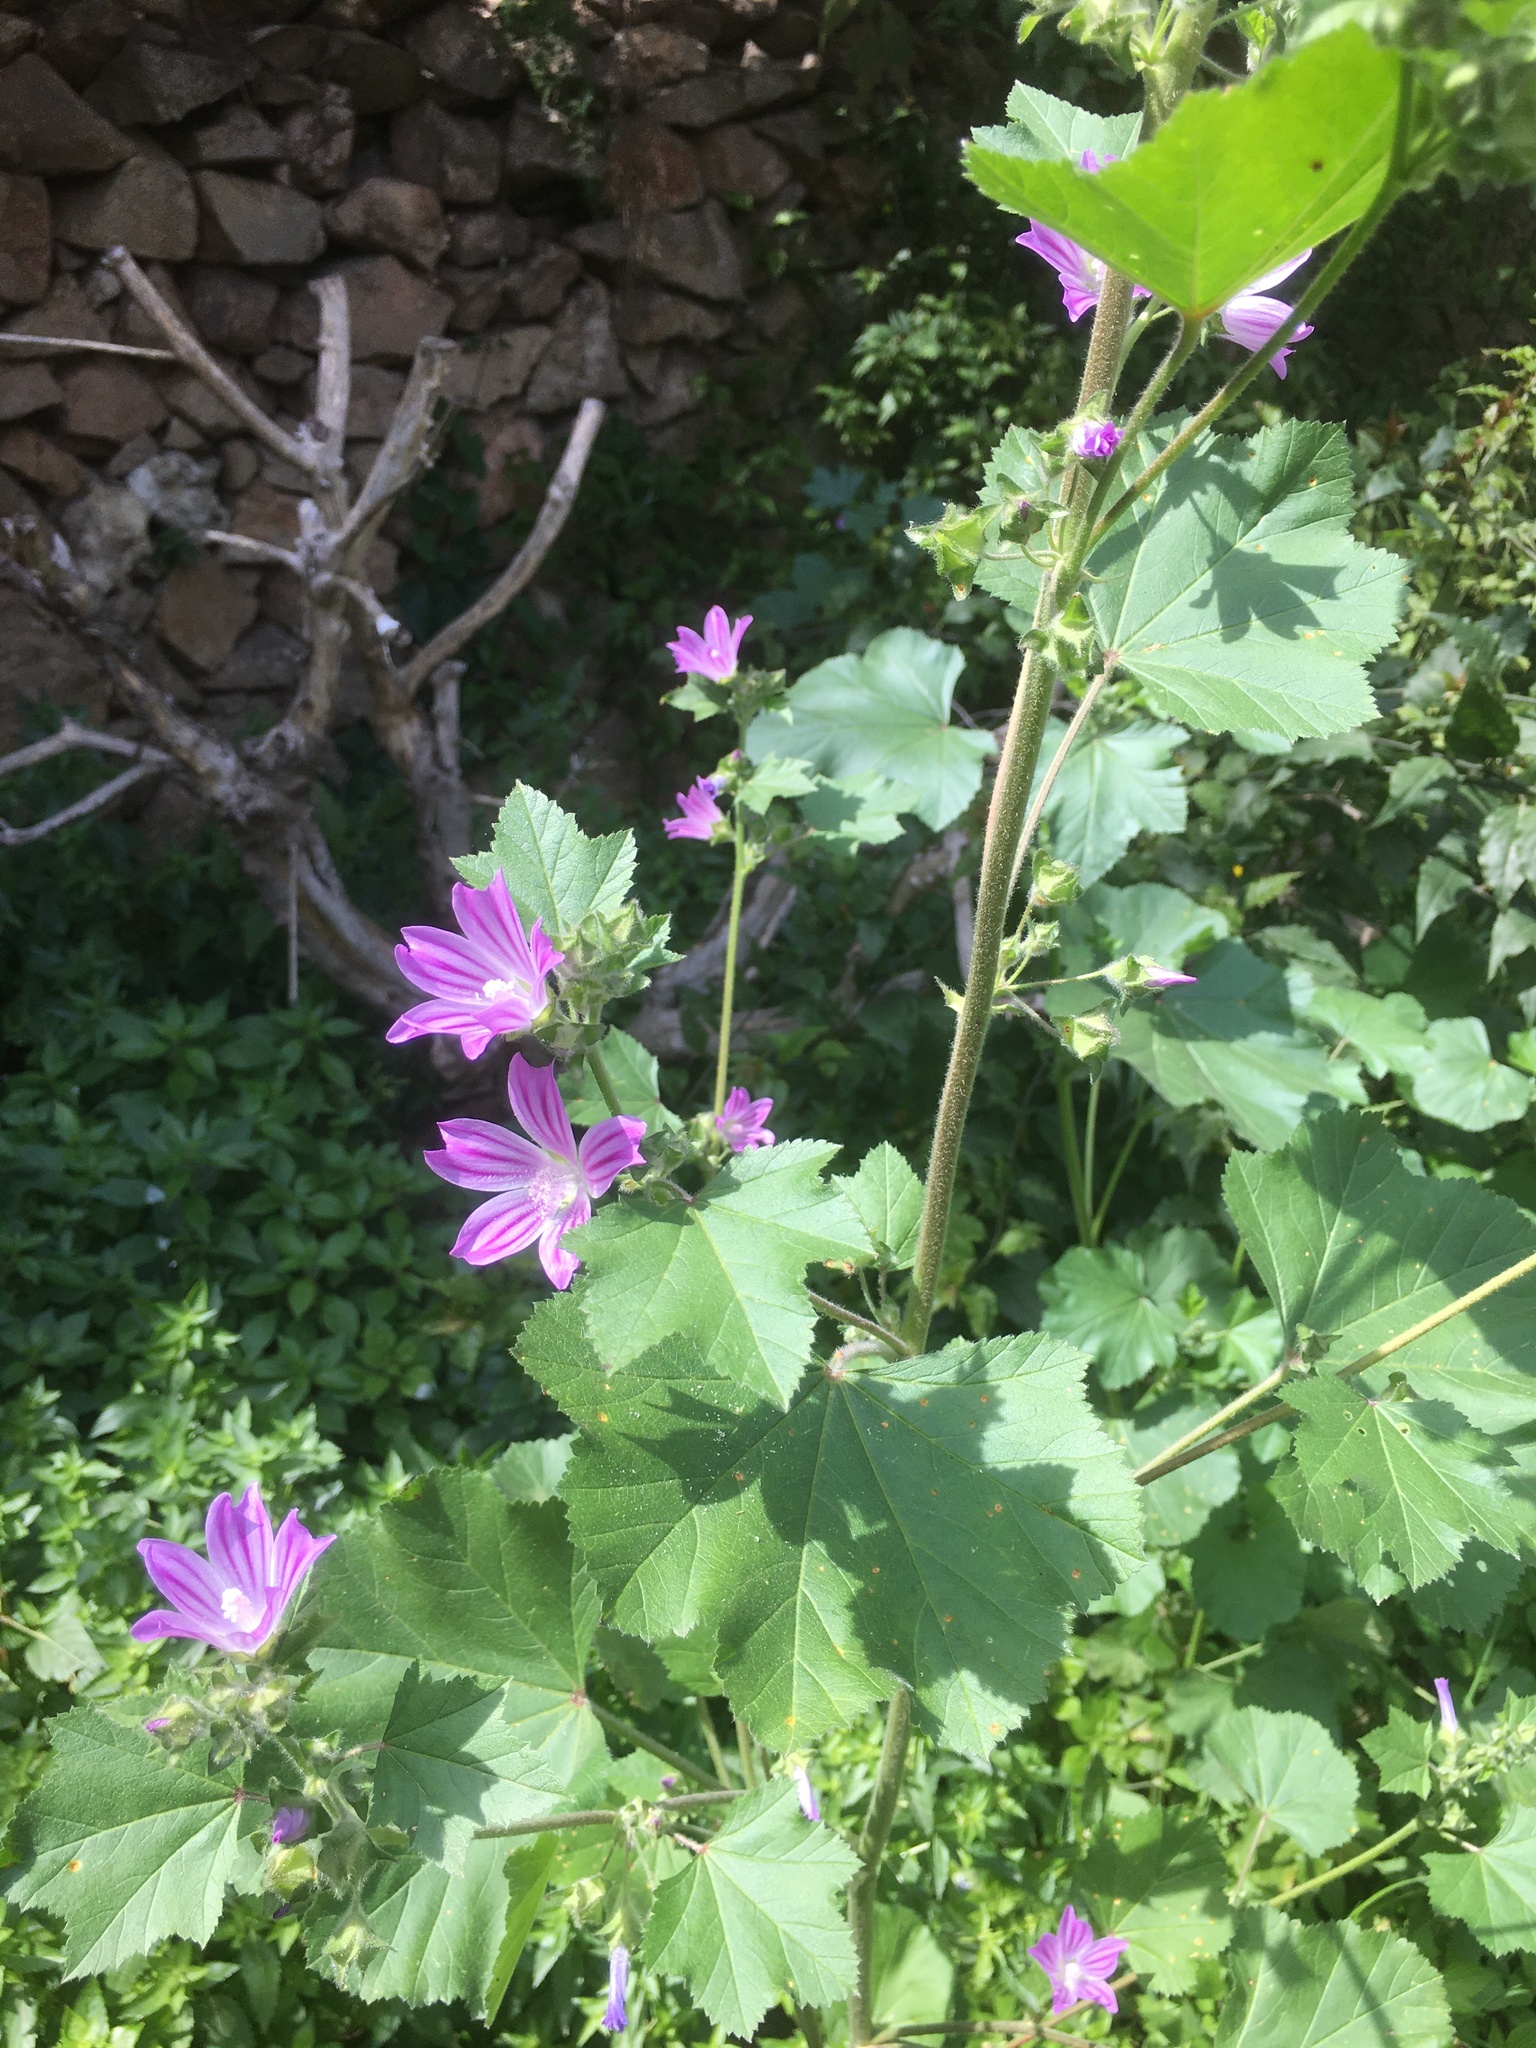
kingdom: Plantae
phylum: Tracheophyta
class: Magnoliopsida
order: Malvales
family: Malvaceae
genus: Malva
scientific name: Malva multiflora
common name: Cheeseweed
